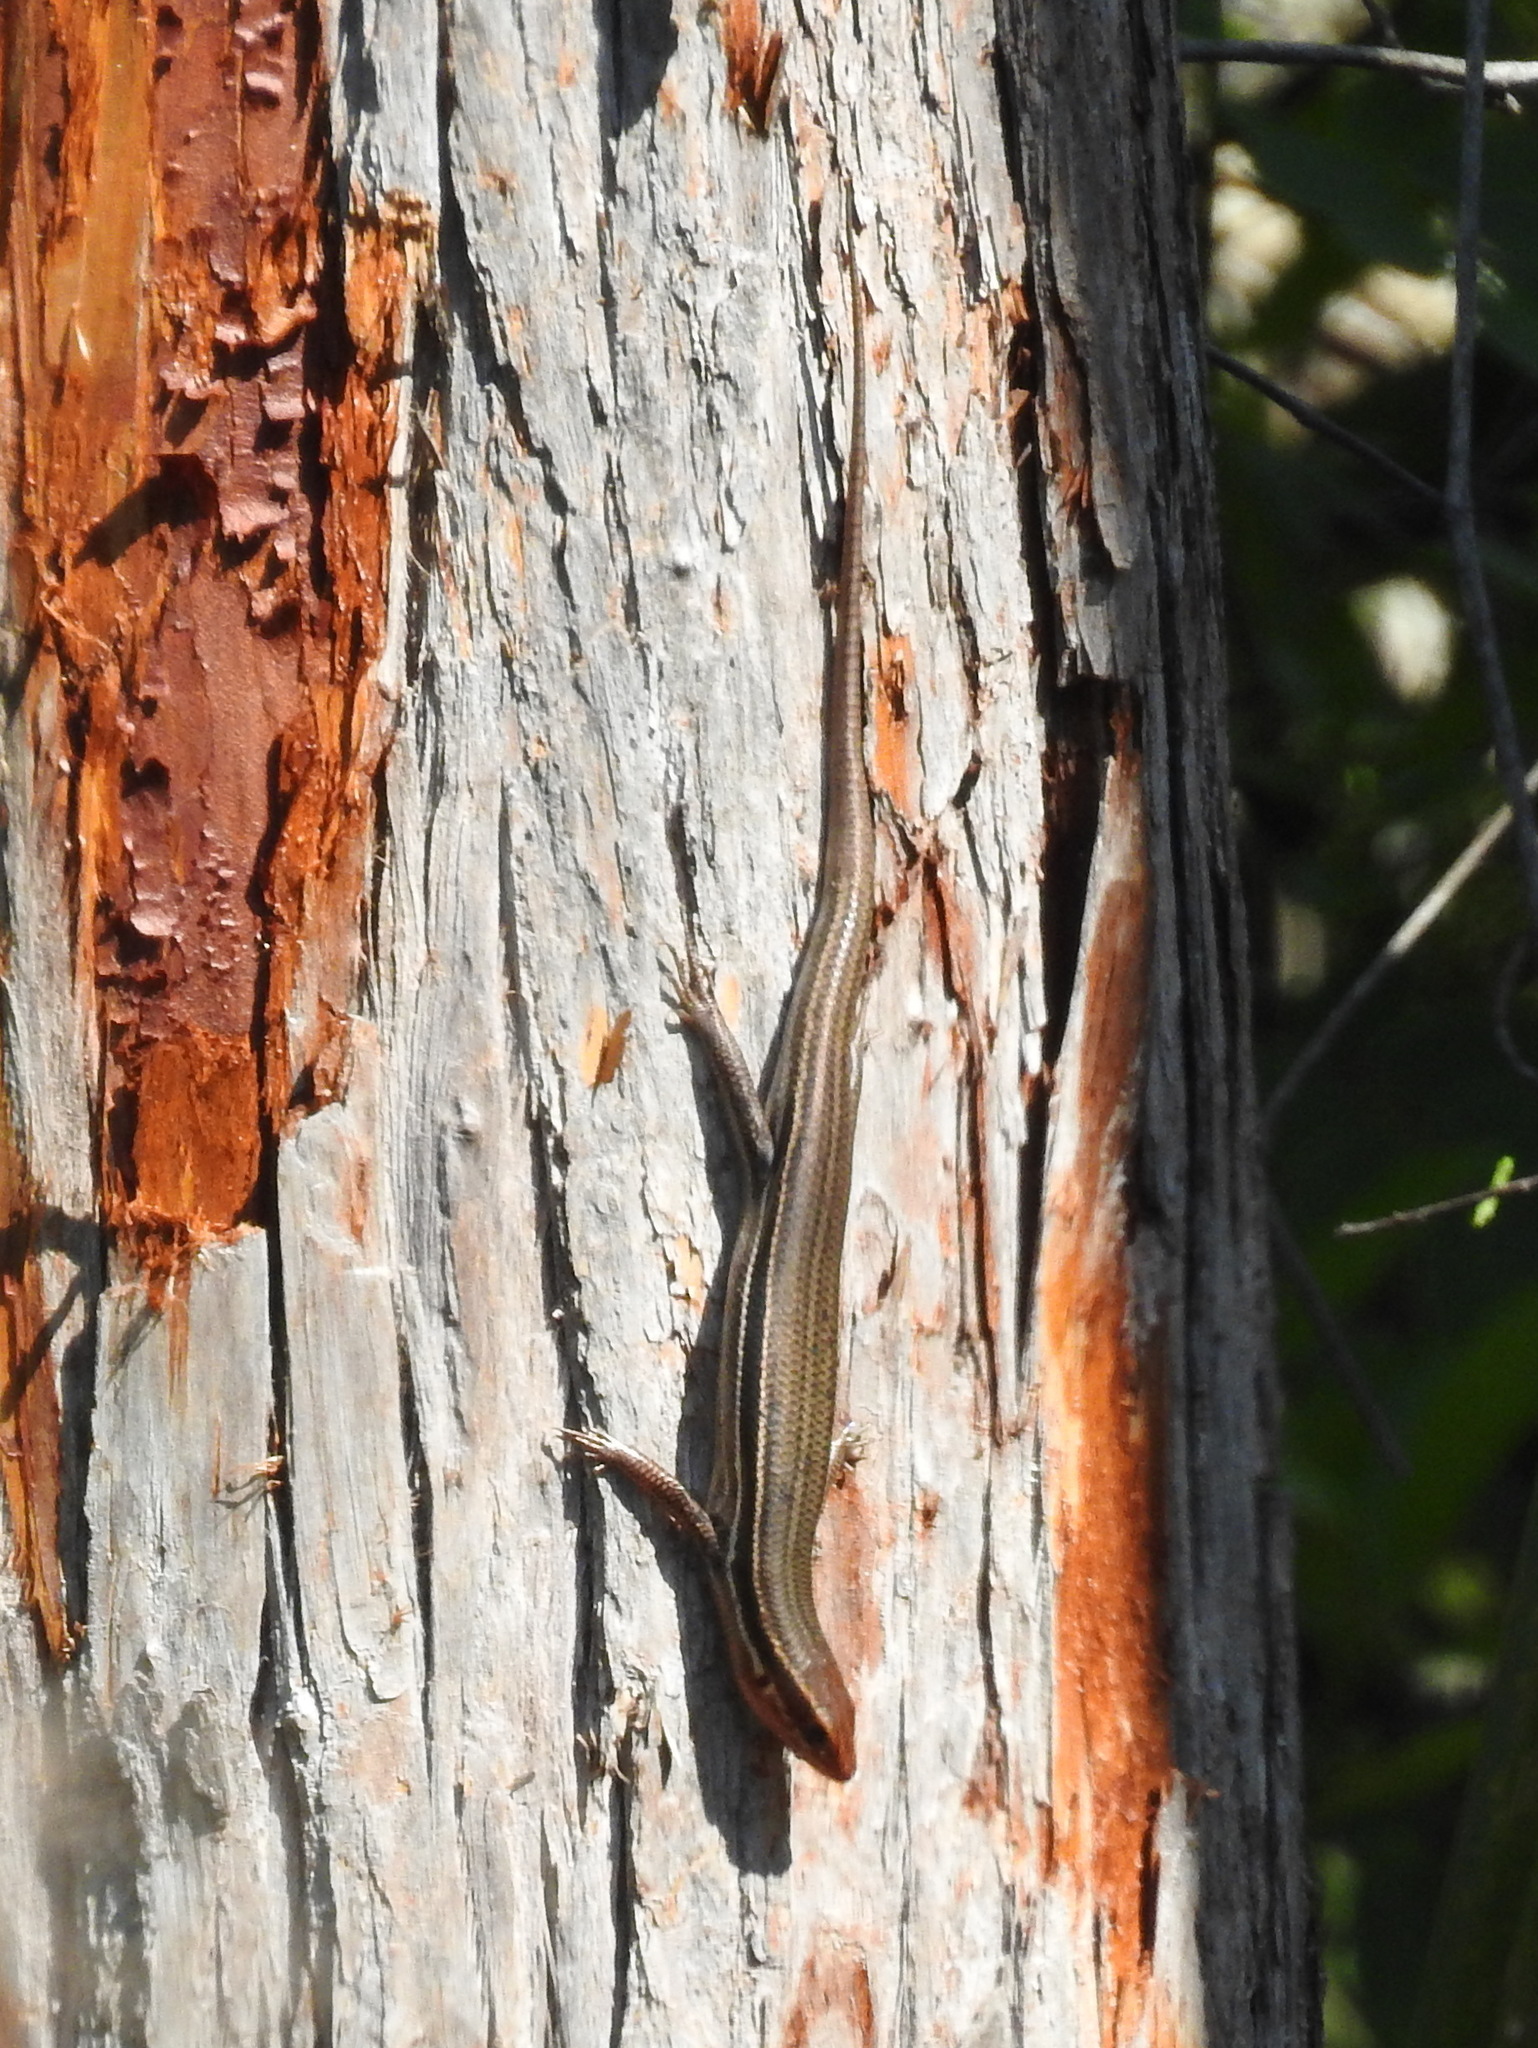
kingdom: Animalia
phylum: Chordata
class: Squamata
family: Scincidae
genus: Plestiodon
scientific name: Plestiodon inexpectatus
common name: Southeastern five-lined skink
